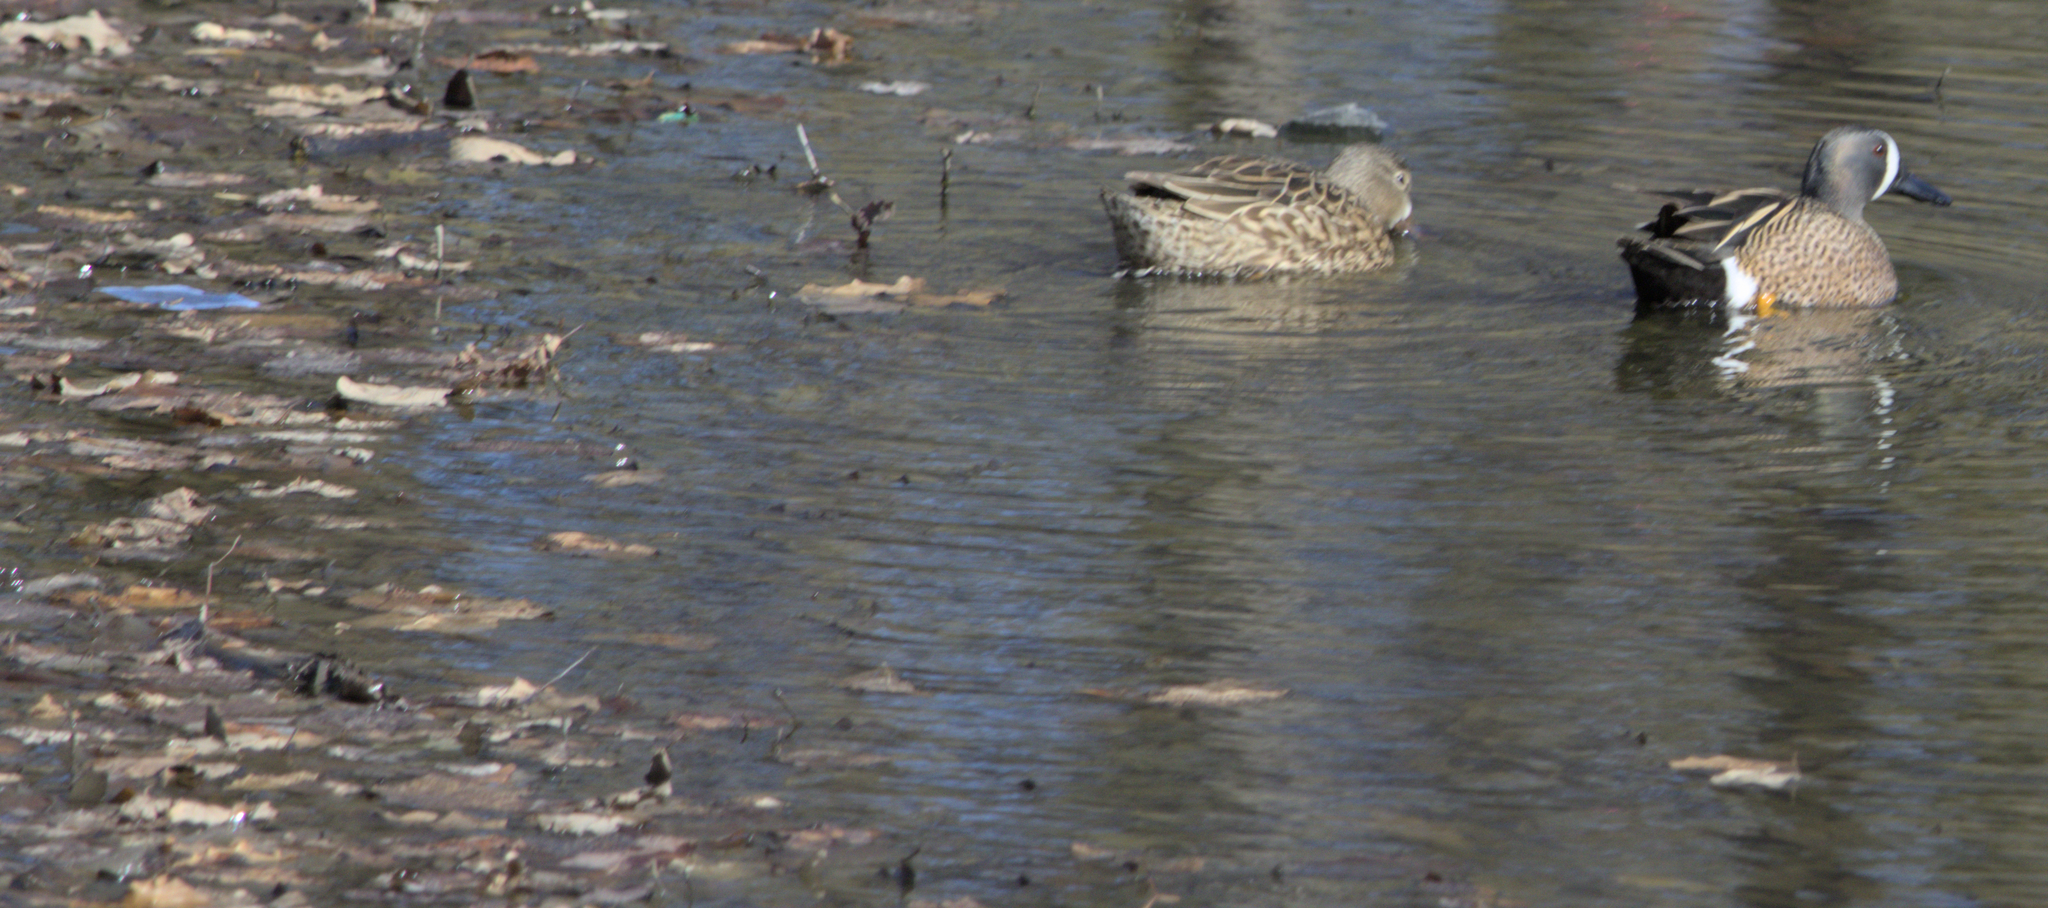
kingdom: Animalia
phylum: Chordata
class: Aves
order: Anseriformes
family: Anatidae
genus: Spatula
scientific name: Spatula discors
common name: Blue-winged teal
